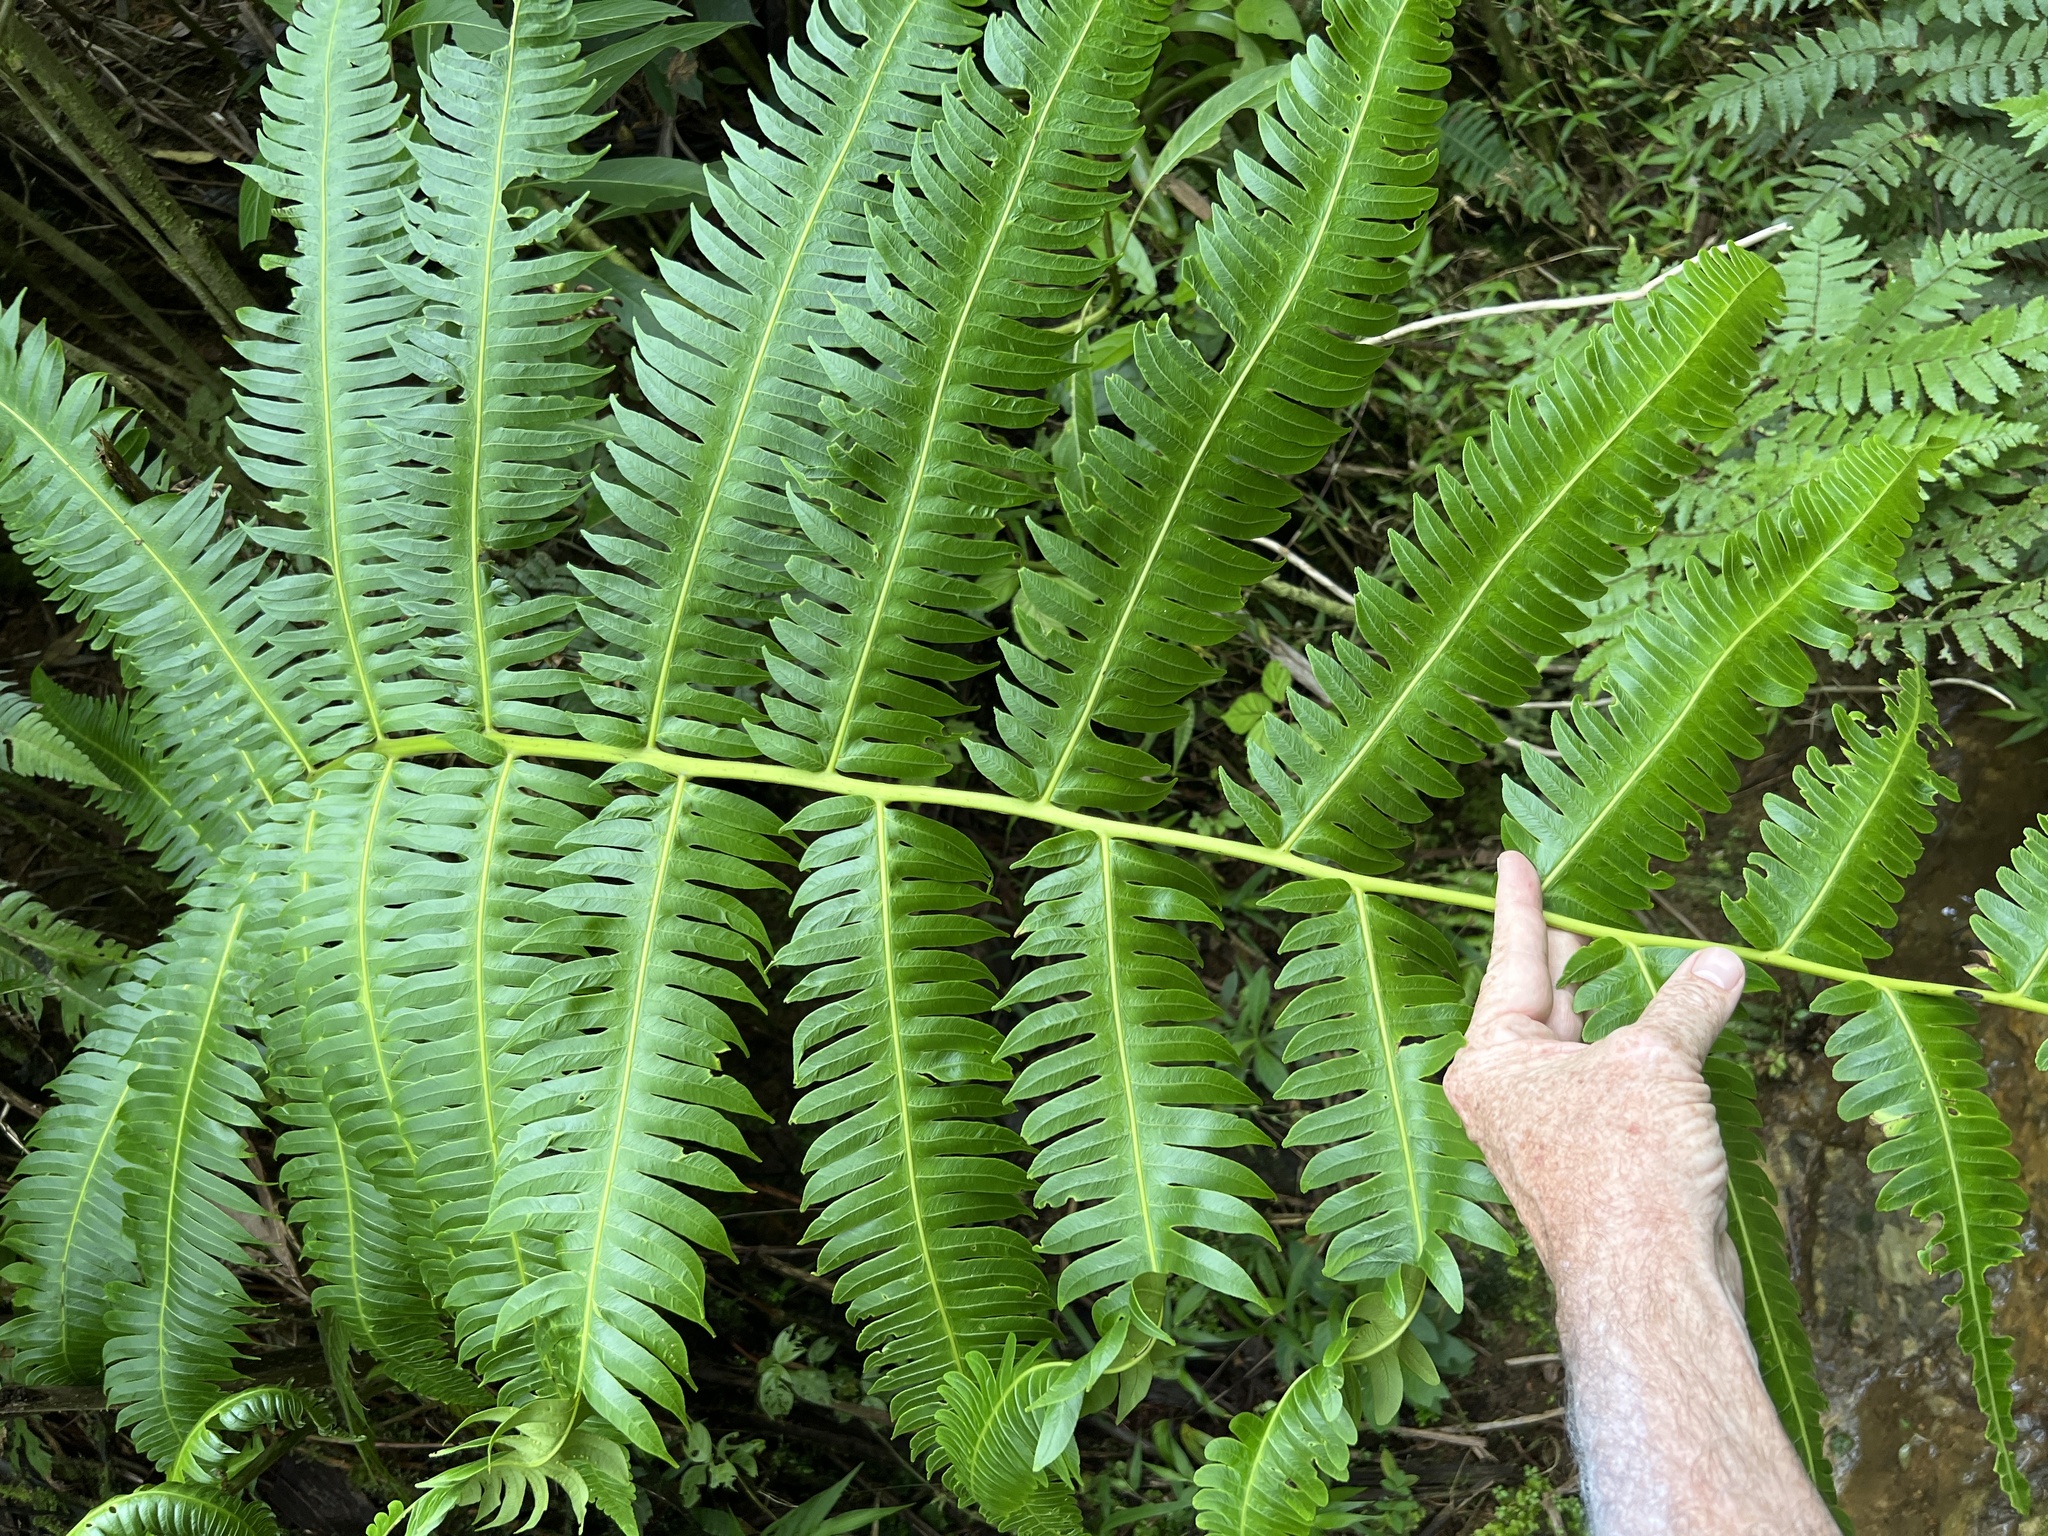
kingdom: Plantae
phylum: Tracheophyta
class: Polypodiopsida
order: Cyatheales
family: Cyatheaceae
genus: Cyathea
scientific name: Cyathea horrida
